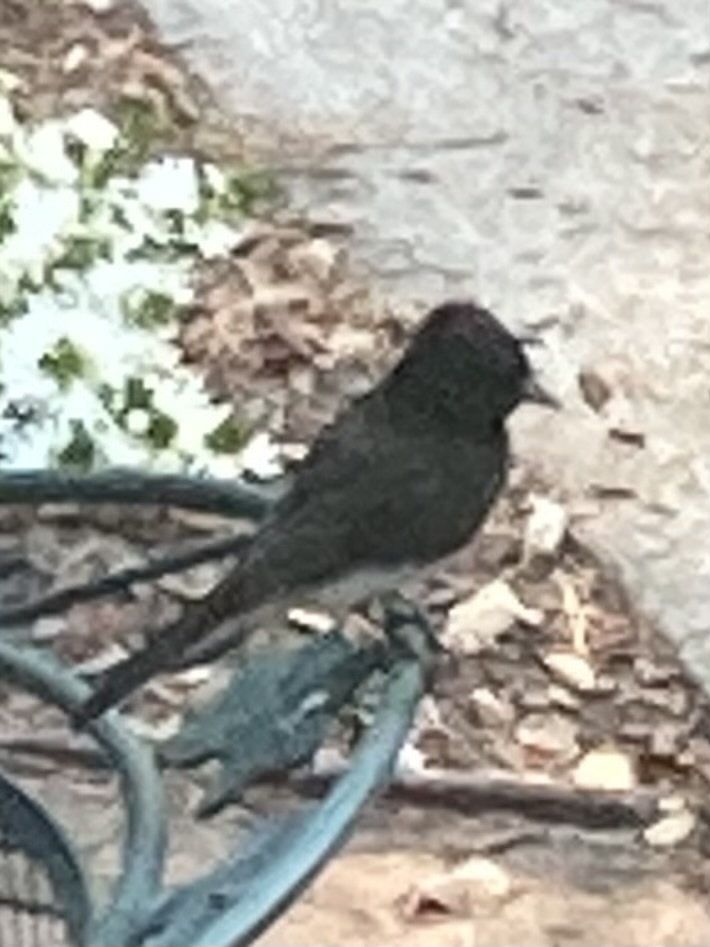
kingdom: Animalia
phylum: Chordata
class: Aves
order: Passeriformes
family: Tyrannidae
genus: Sayornis
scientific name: Sayornis nigricans
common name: Black phoebe
